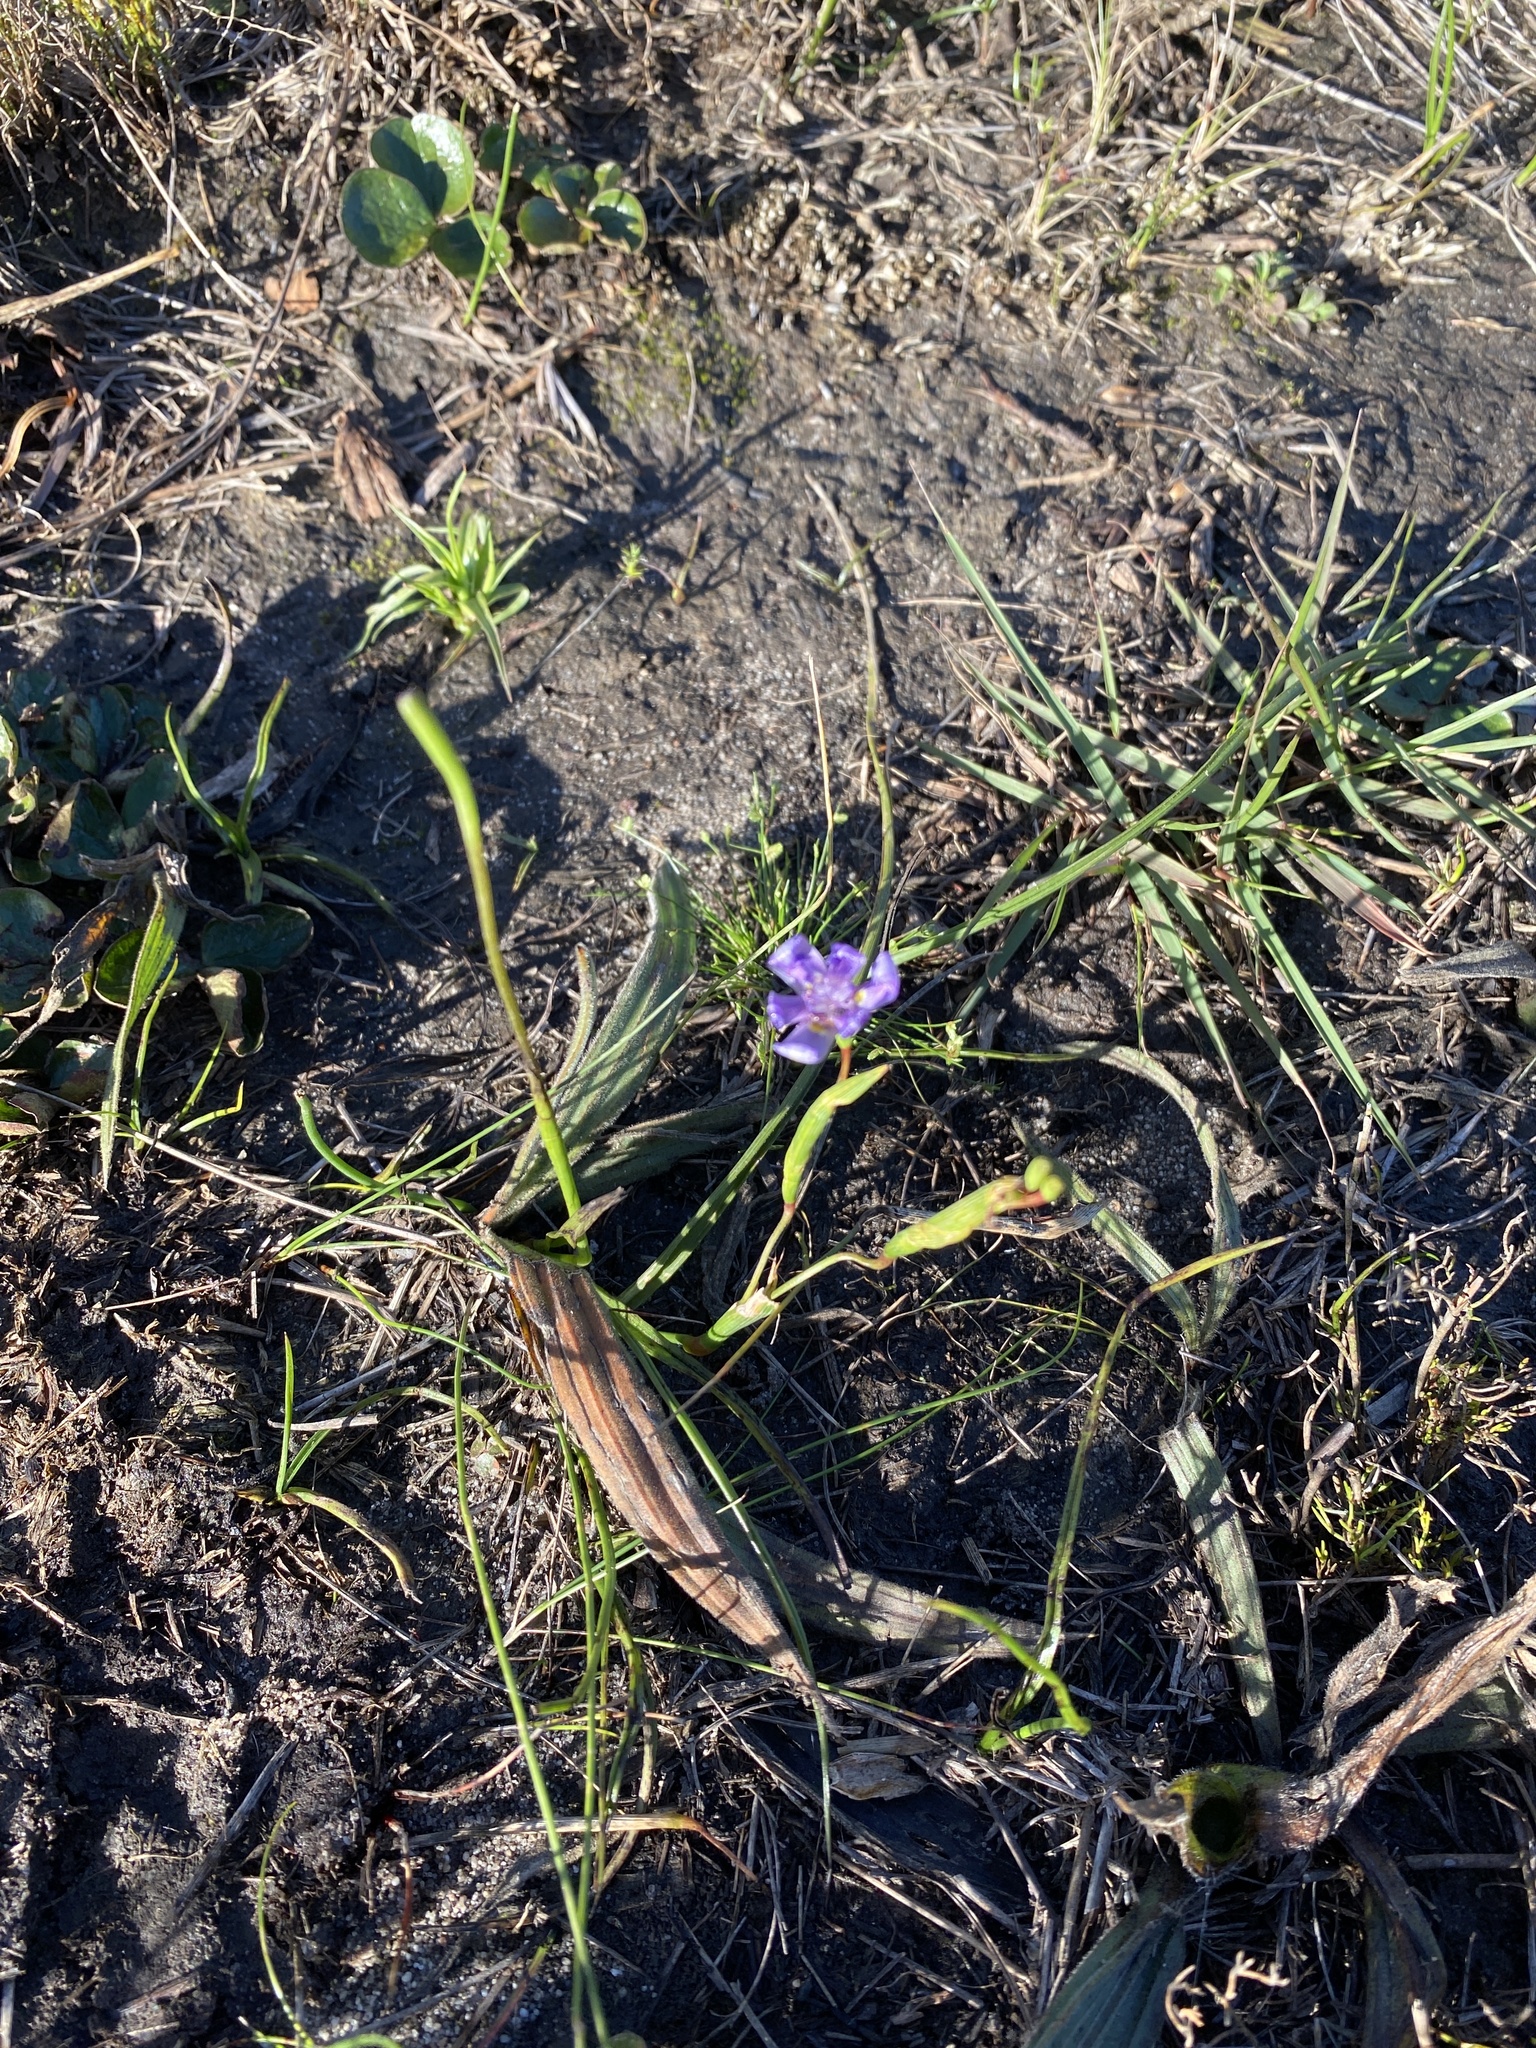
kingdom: Plantae
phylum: Tracheophyta
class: Liliopsida
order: Asparagales
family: Iridaceae
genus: Moraea
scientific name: Moraea lugubris
